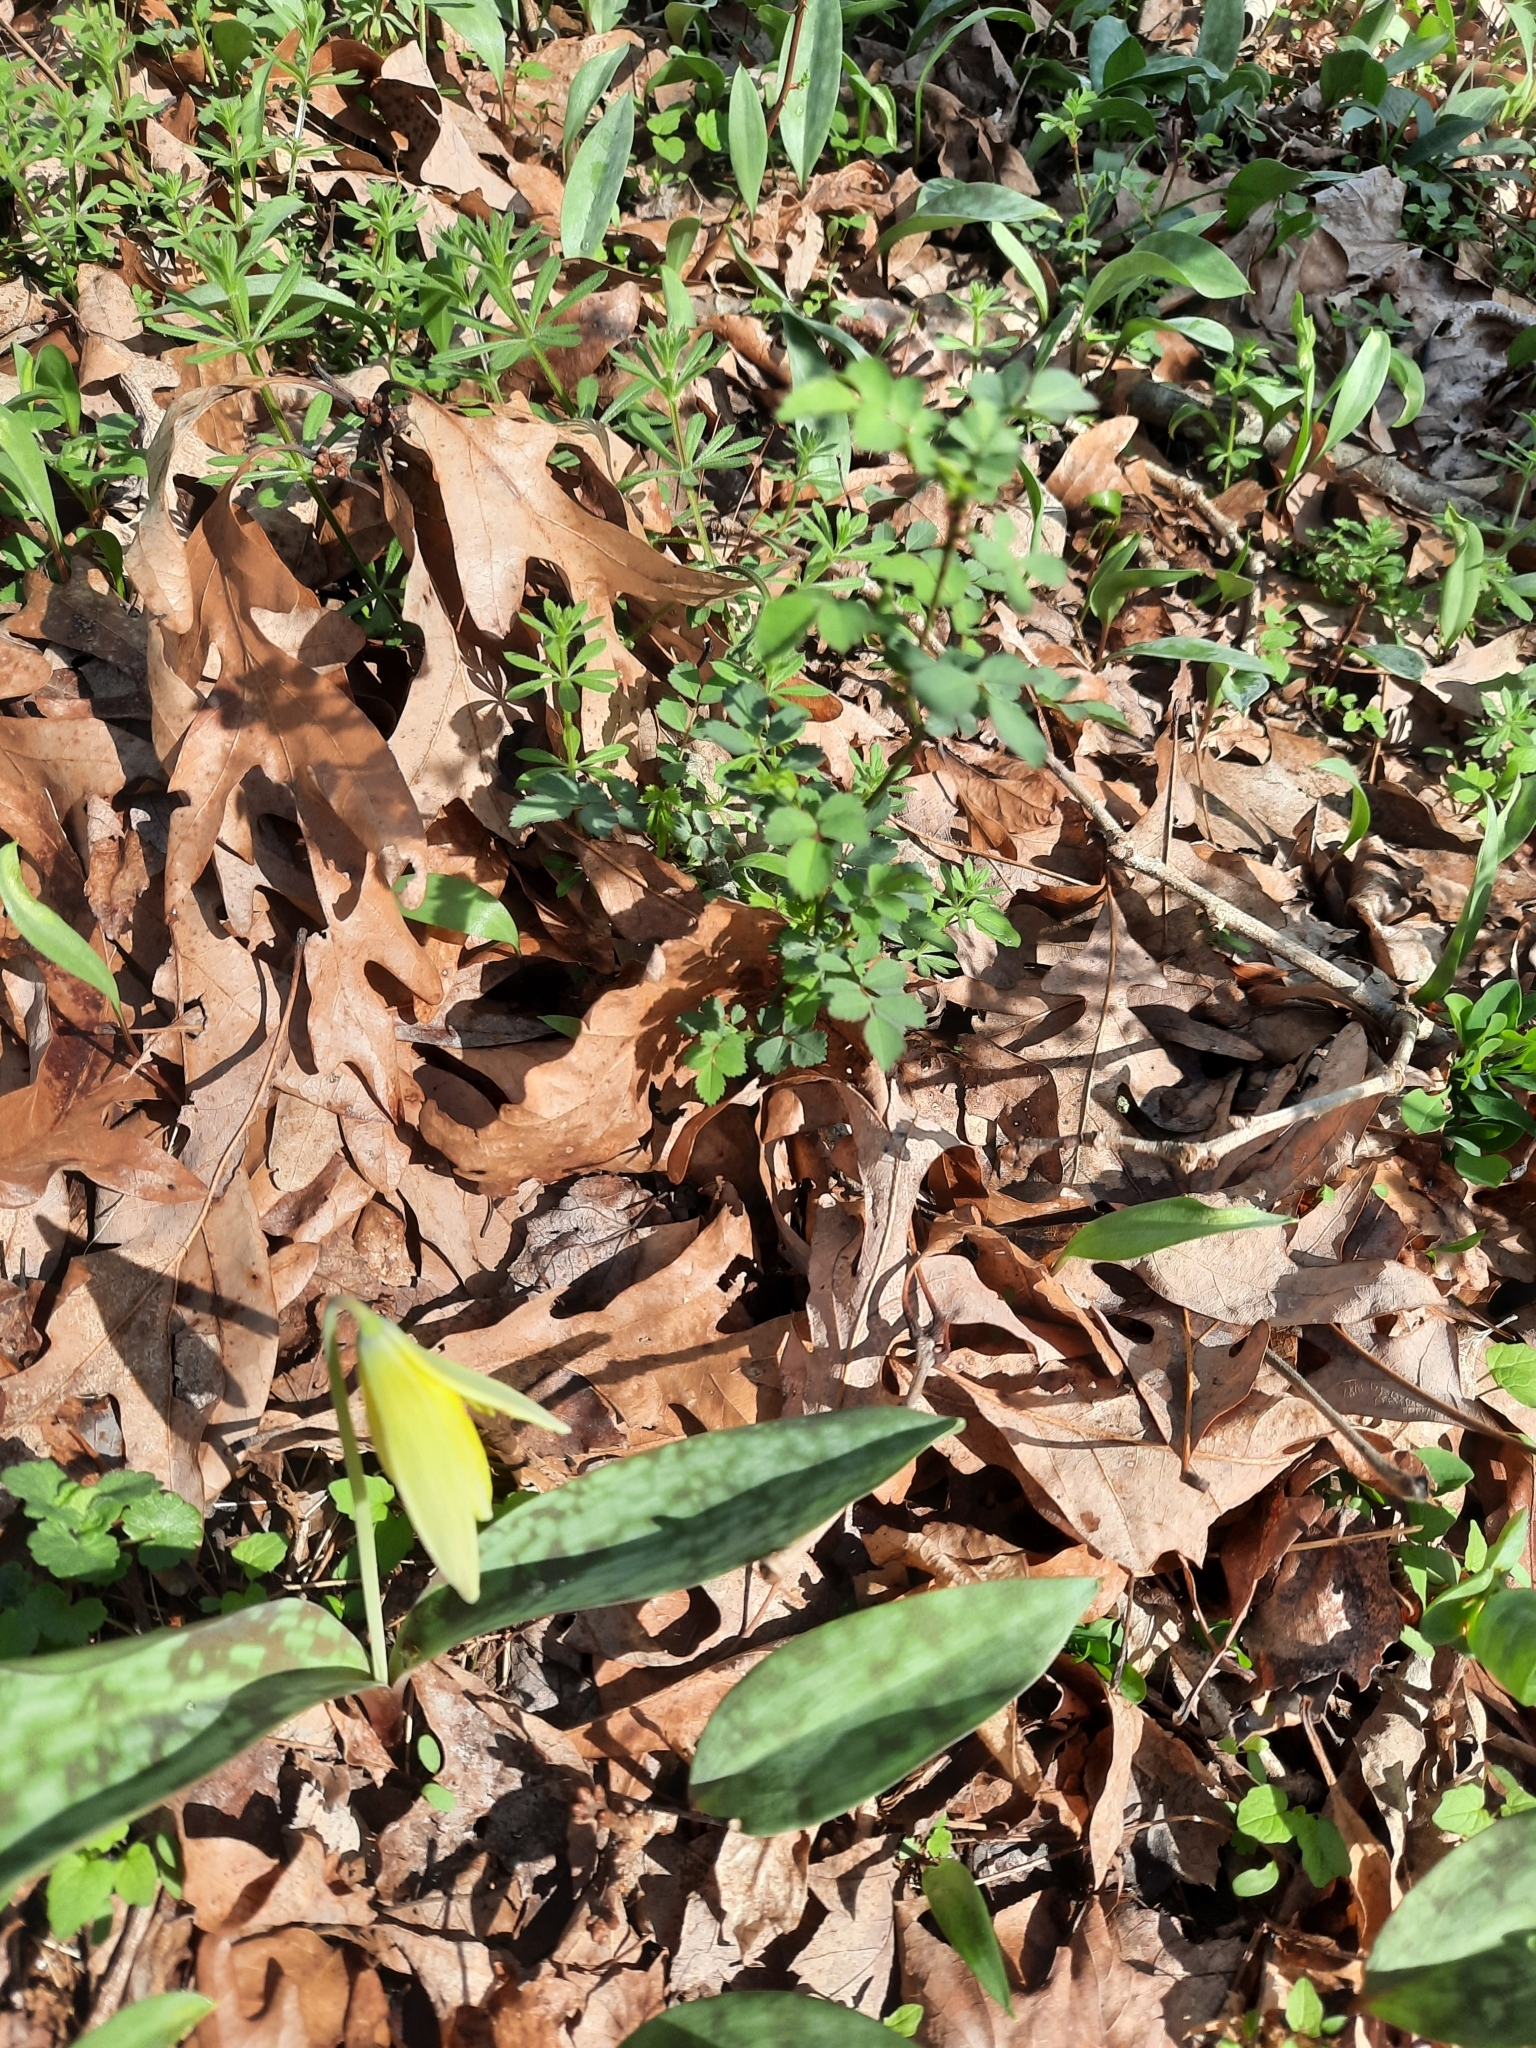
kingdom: Plantae
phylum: Tracheophyta
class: Magnoliopsida
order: Rosales
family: Rosaceae
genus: Rosa
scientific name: Rosa multiflora
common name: Multiflora rose
